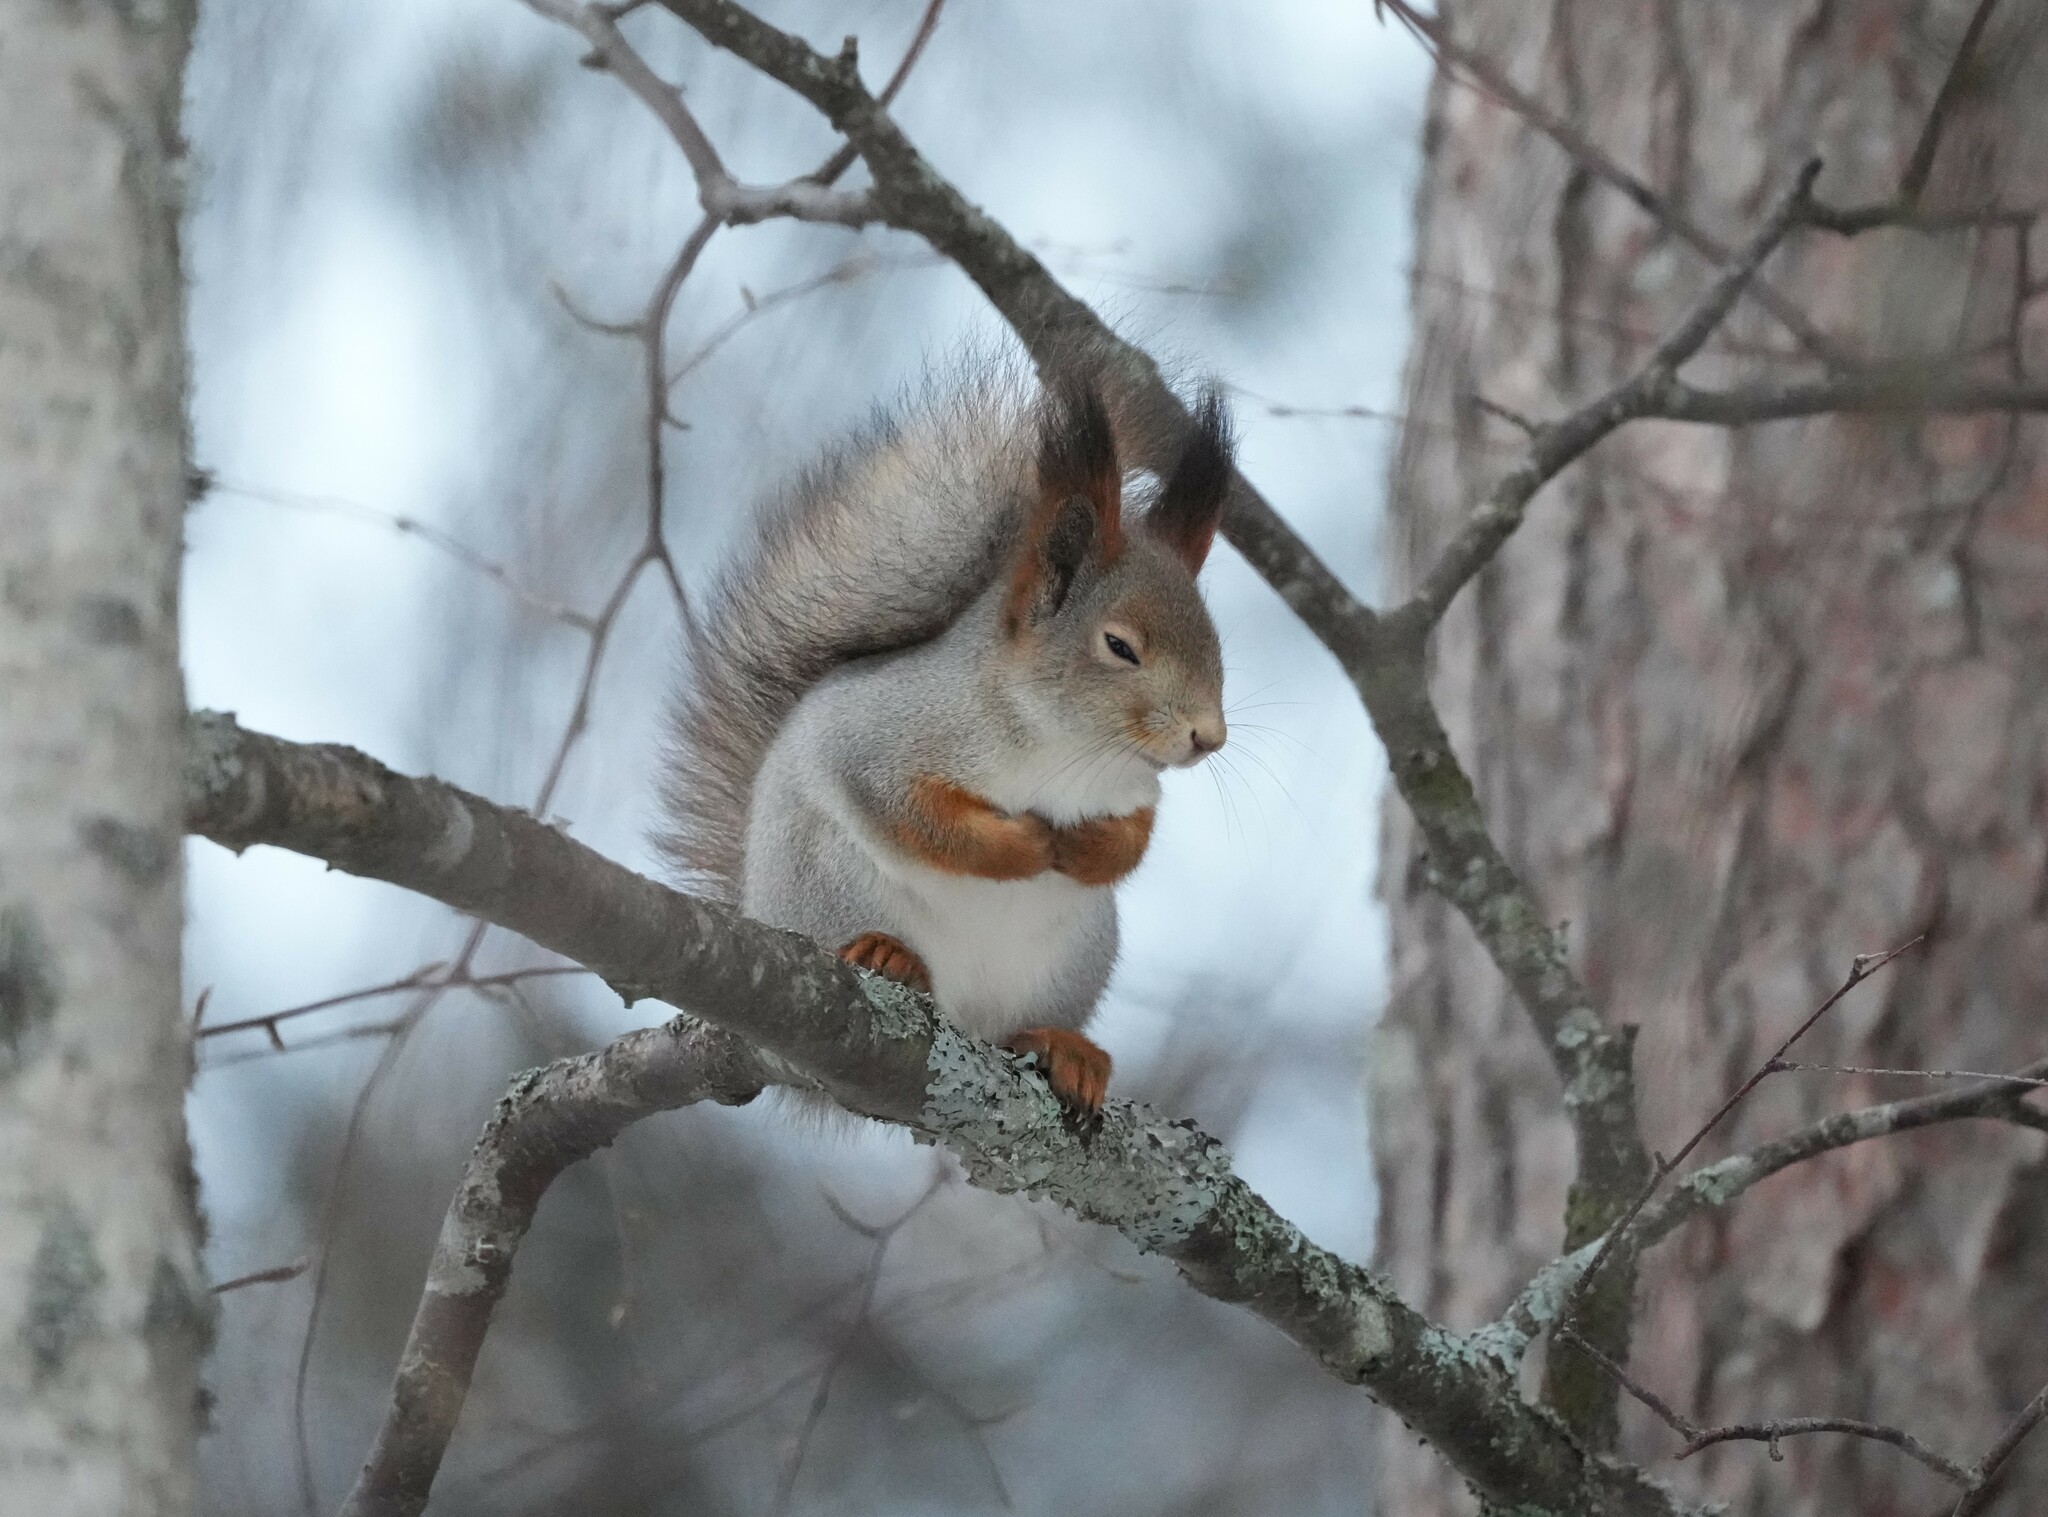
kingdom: Animalia
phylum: Chordata
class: Mammalia
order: Rodentia
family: Sciuridae
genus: Sciurus
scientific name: Sciurus vulgaris
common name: Eurasian red squirrel
